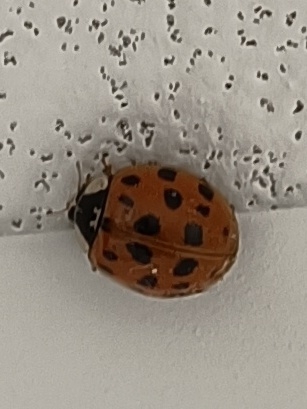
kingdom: Animalia
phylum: Arthropoda
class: Insecta
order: Coleoptera
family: Coccinellidae
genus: Harmonia
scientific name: Harmonia axyridis
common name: Harlequin ladybird
